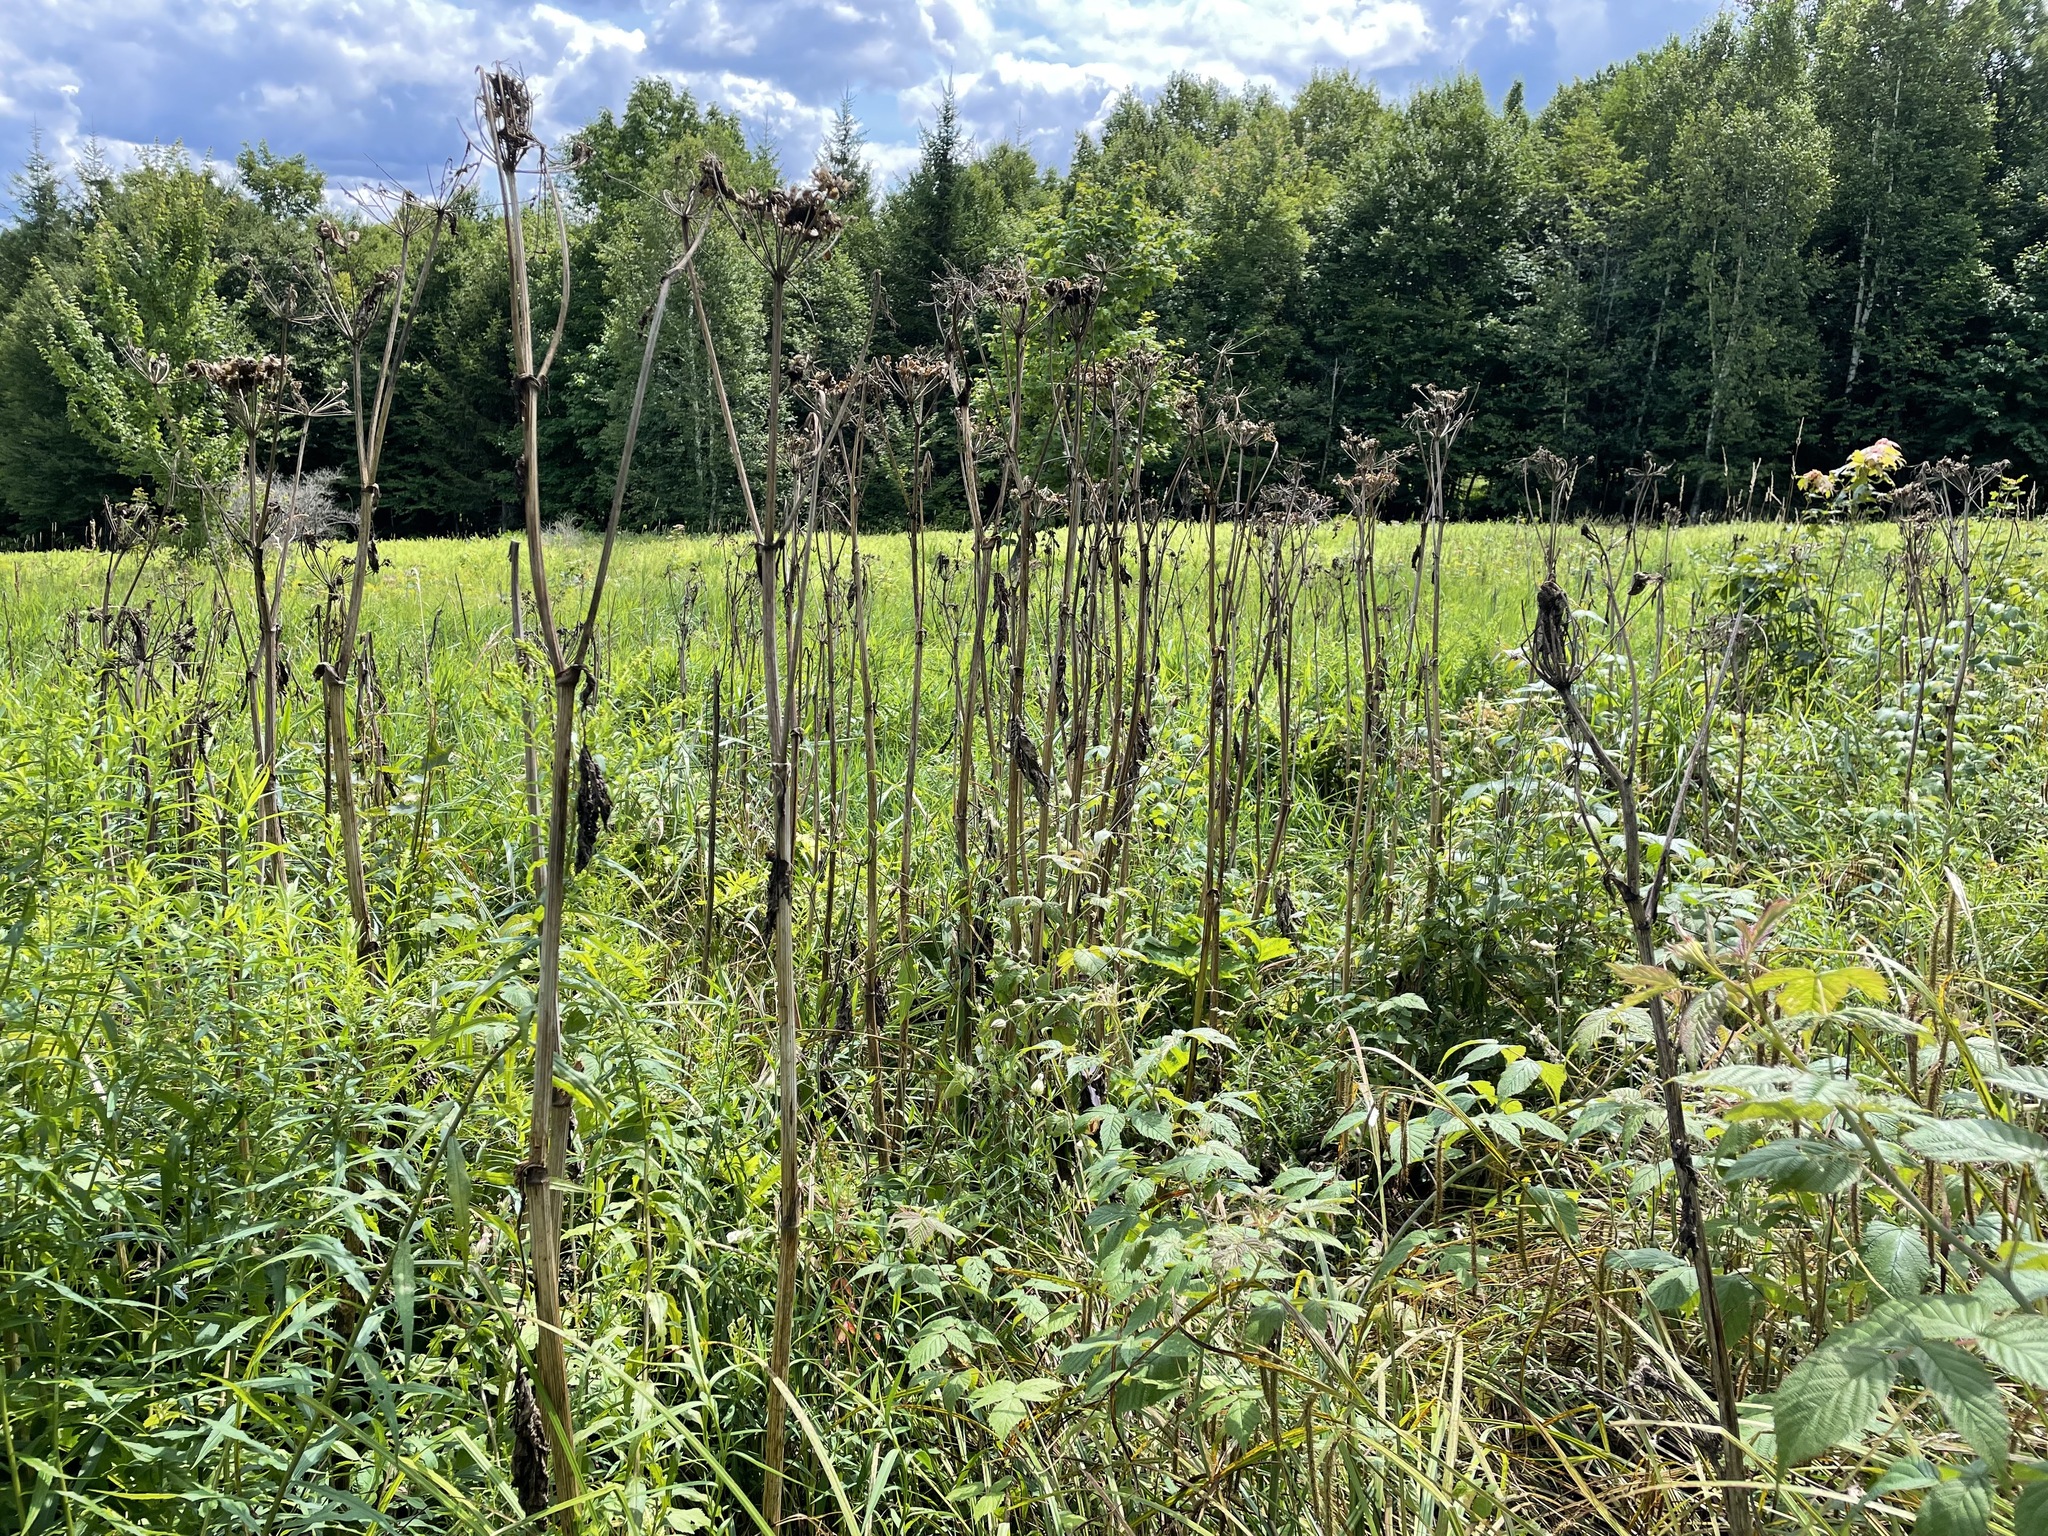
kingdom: Plantae
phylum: Tracheophyta
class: Magnoliopsida
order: Apiales
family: Apiaceae
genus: Heracleum
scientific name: Heracleum maximum
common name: American cow parsnip
